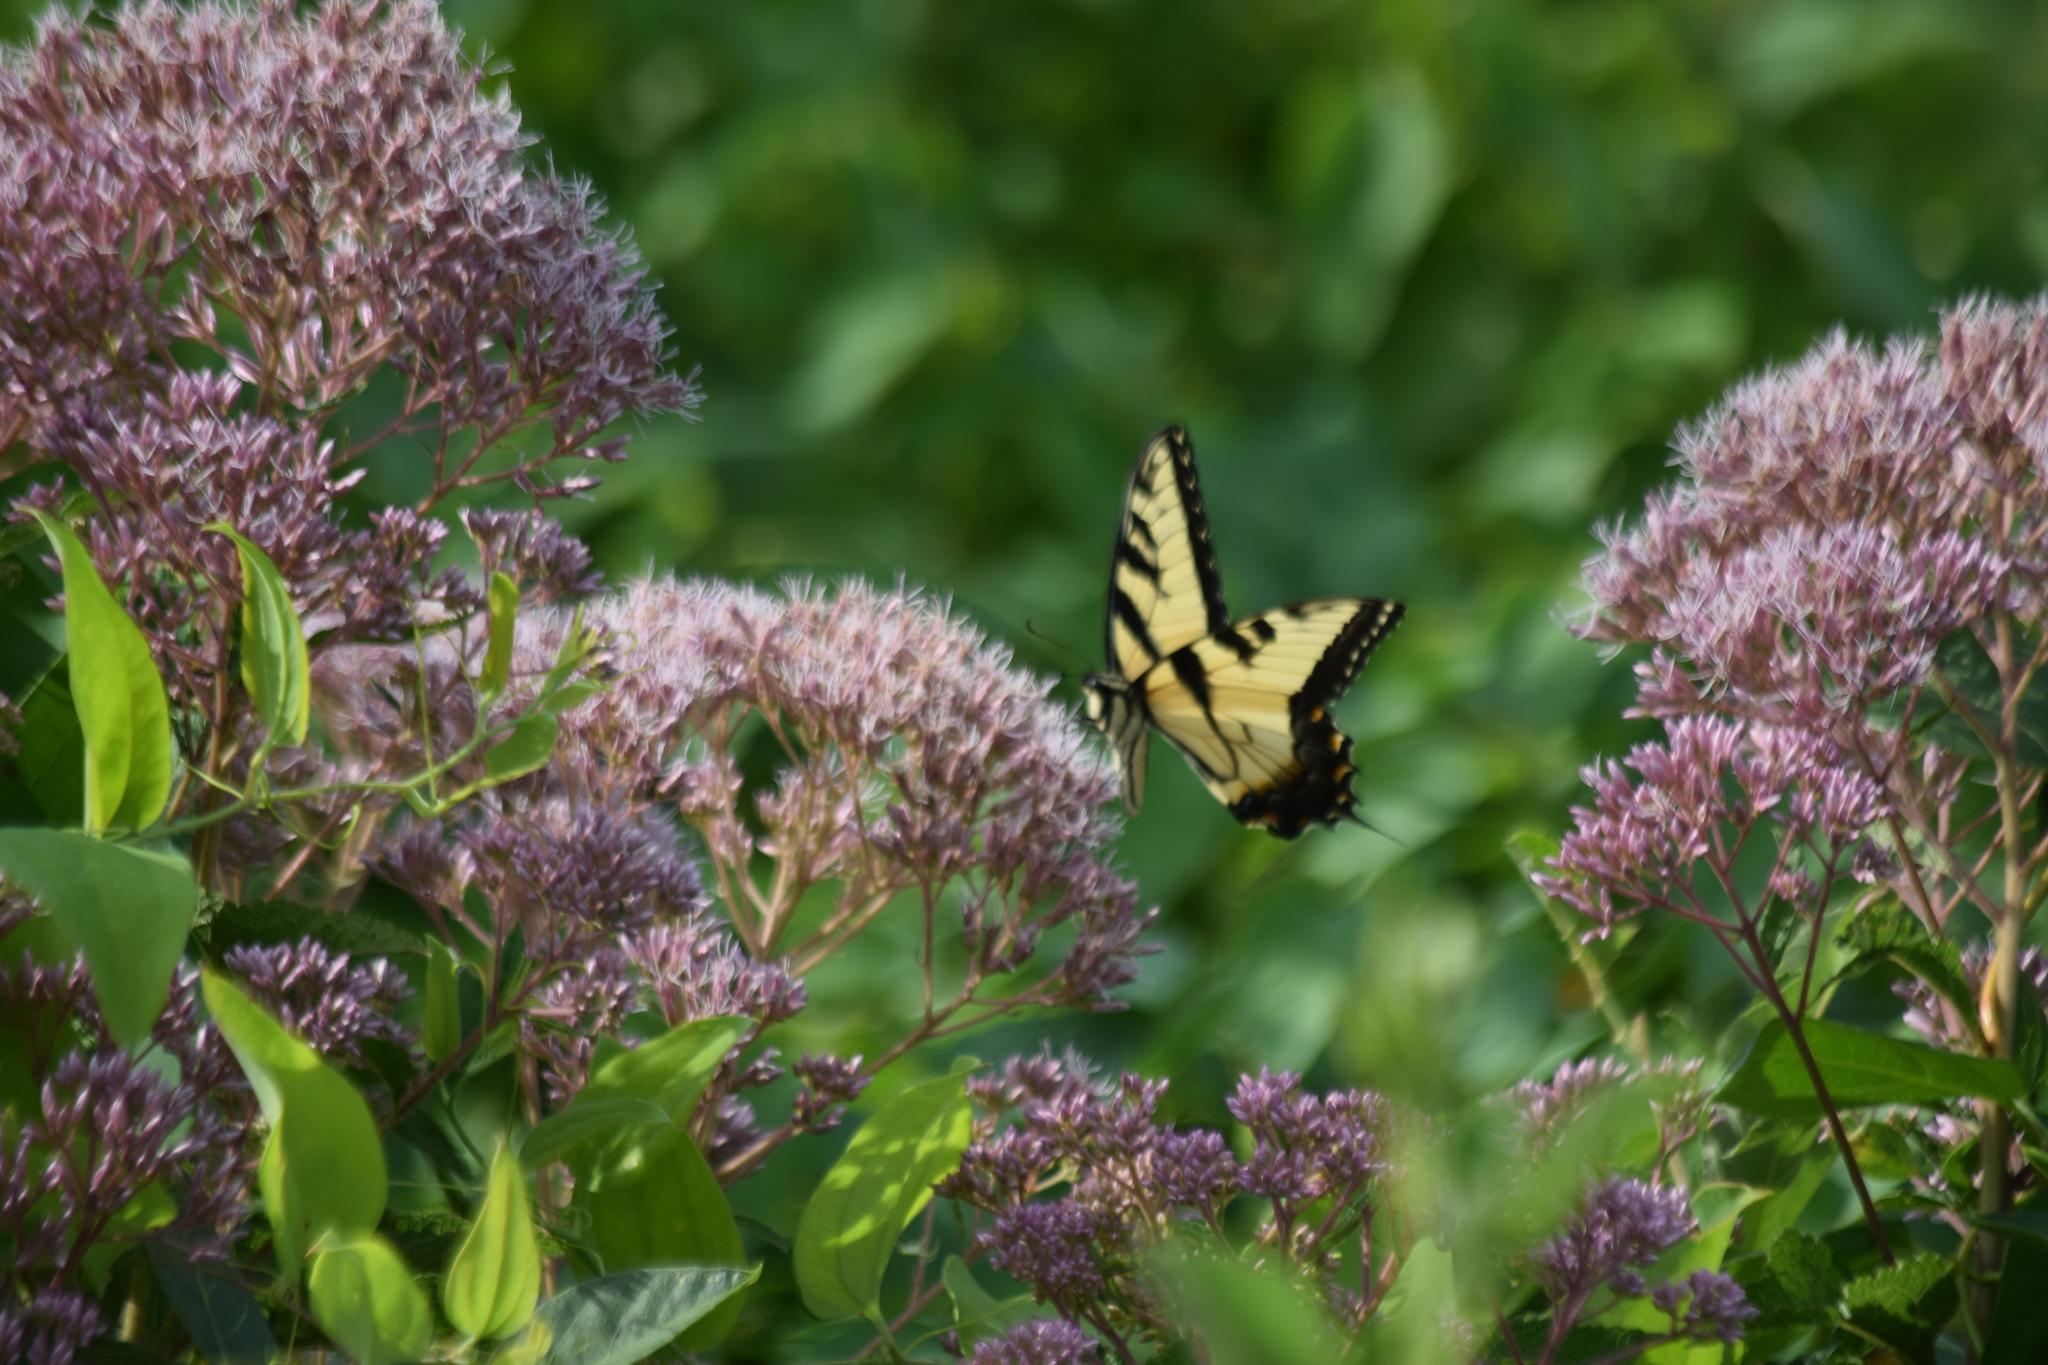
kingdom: Animalia
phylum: Arthropoda
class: Insecta
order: Lepidoptera
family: Papilionidae
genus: Papilio
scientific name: Papilio glaucus
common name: Tiger swallowtail
